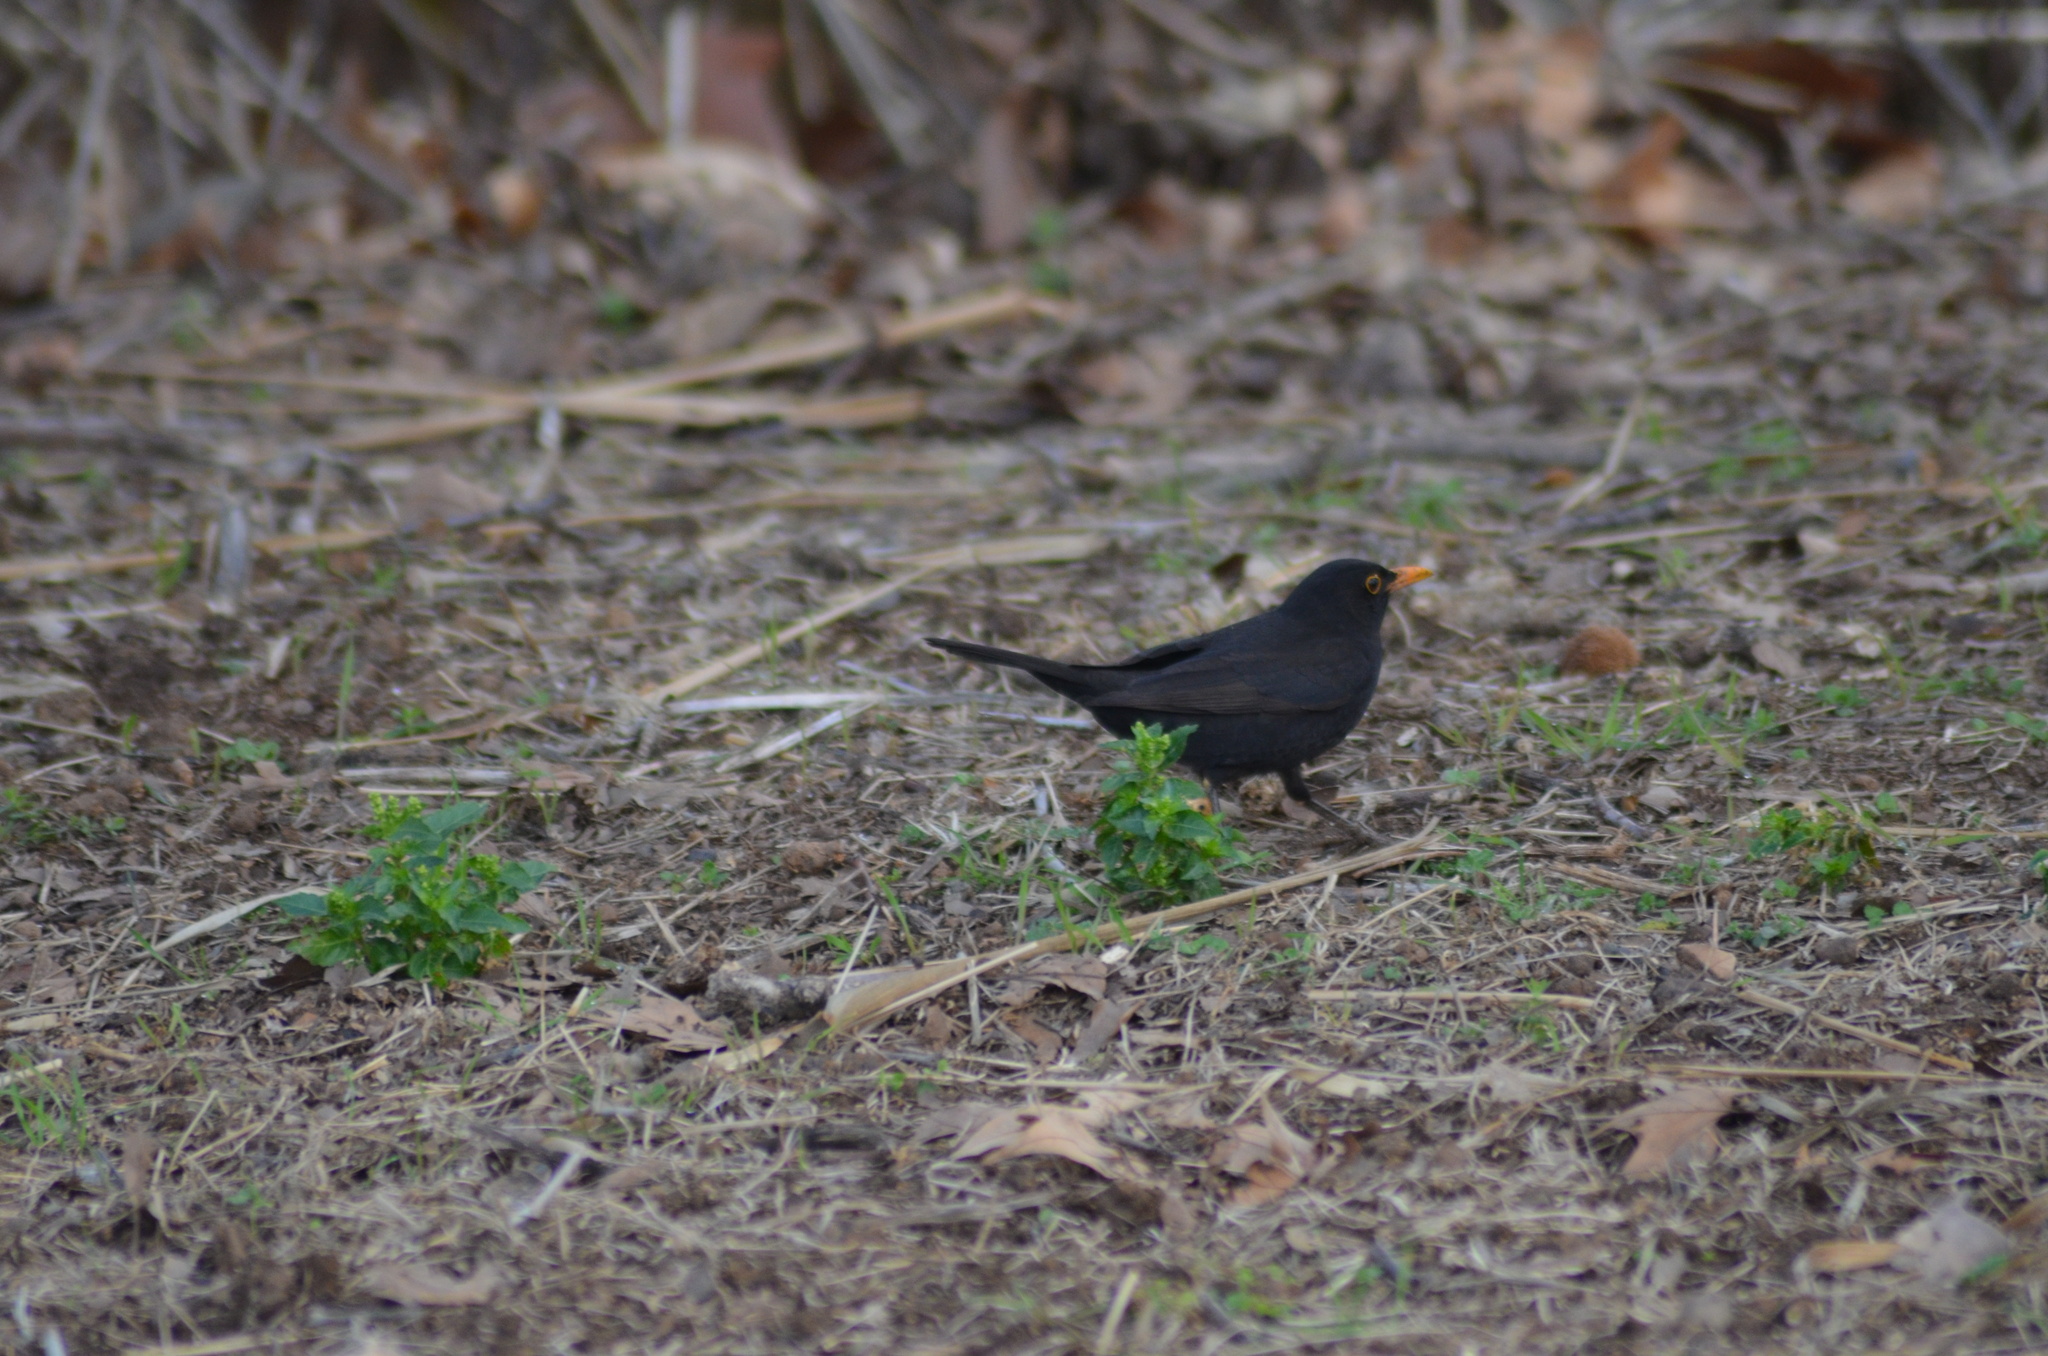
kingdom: Animalia
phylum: Chordata
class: Aves
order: Passeriformes
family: Turdidae
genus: Turdus
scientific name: Turdus merula
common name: Common blackbird
